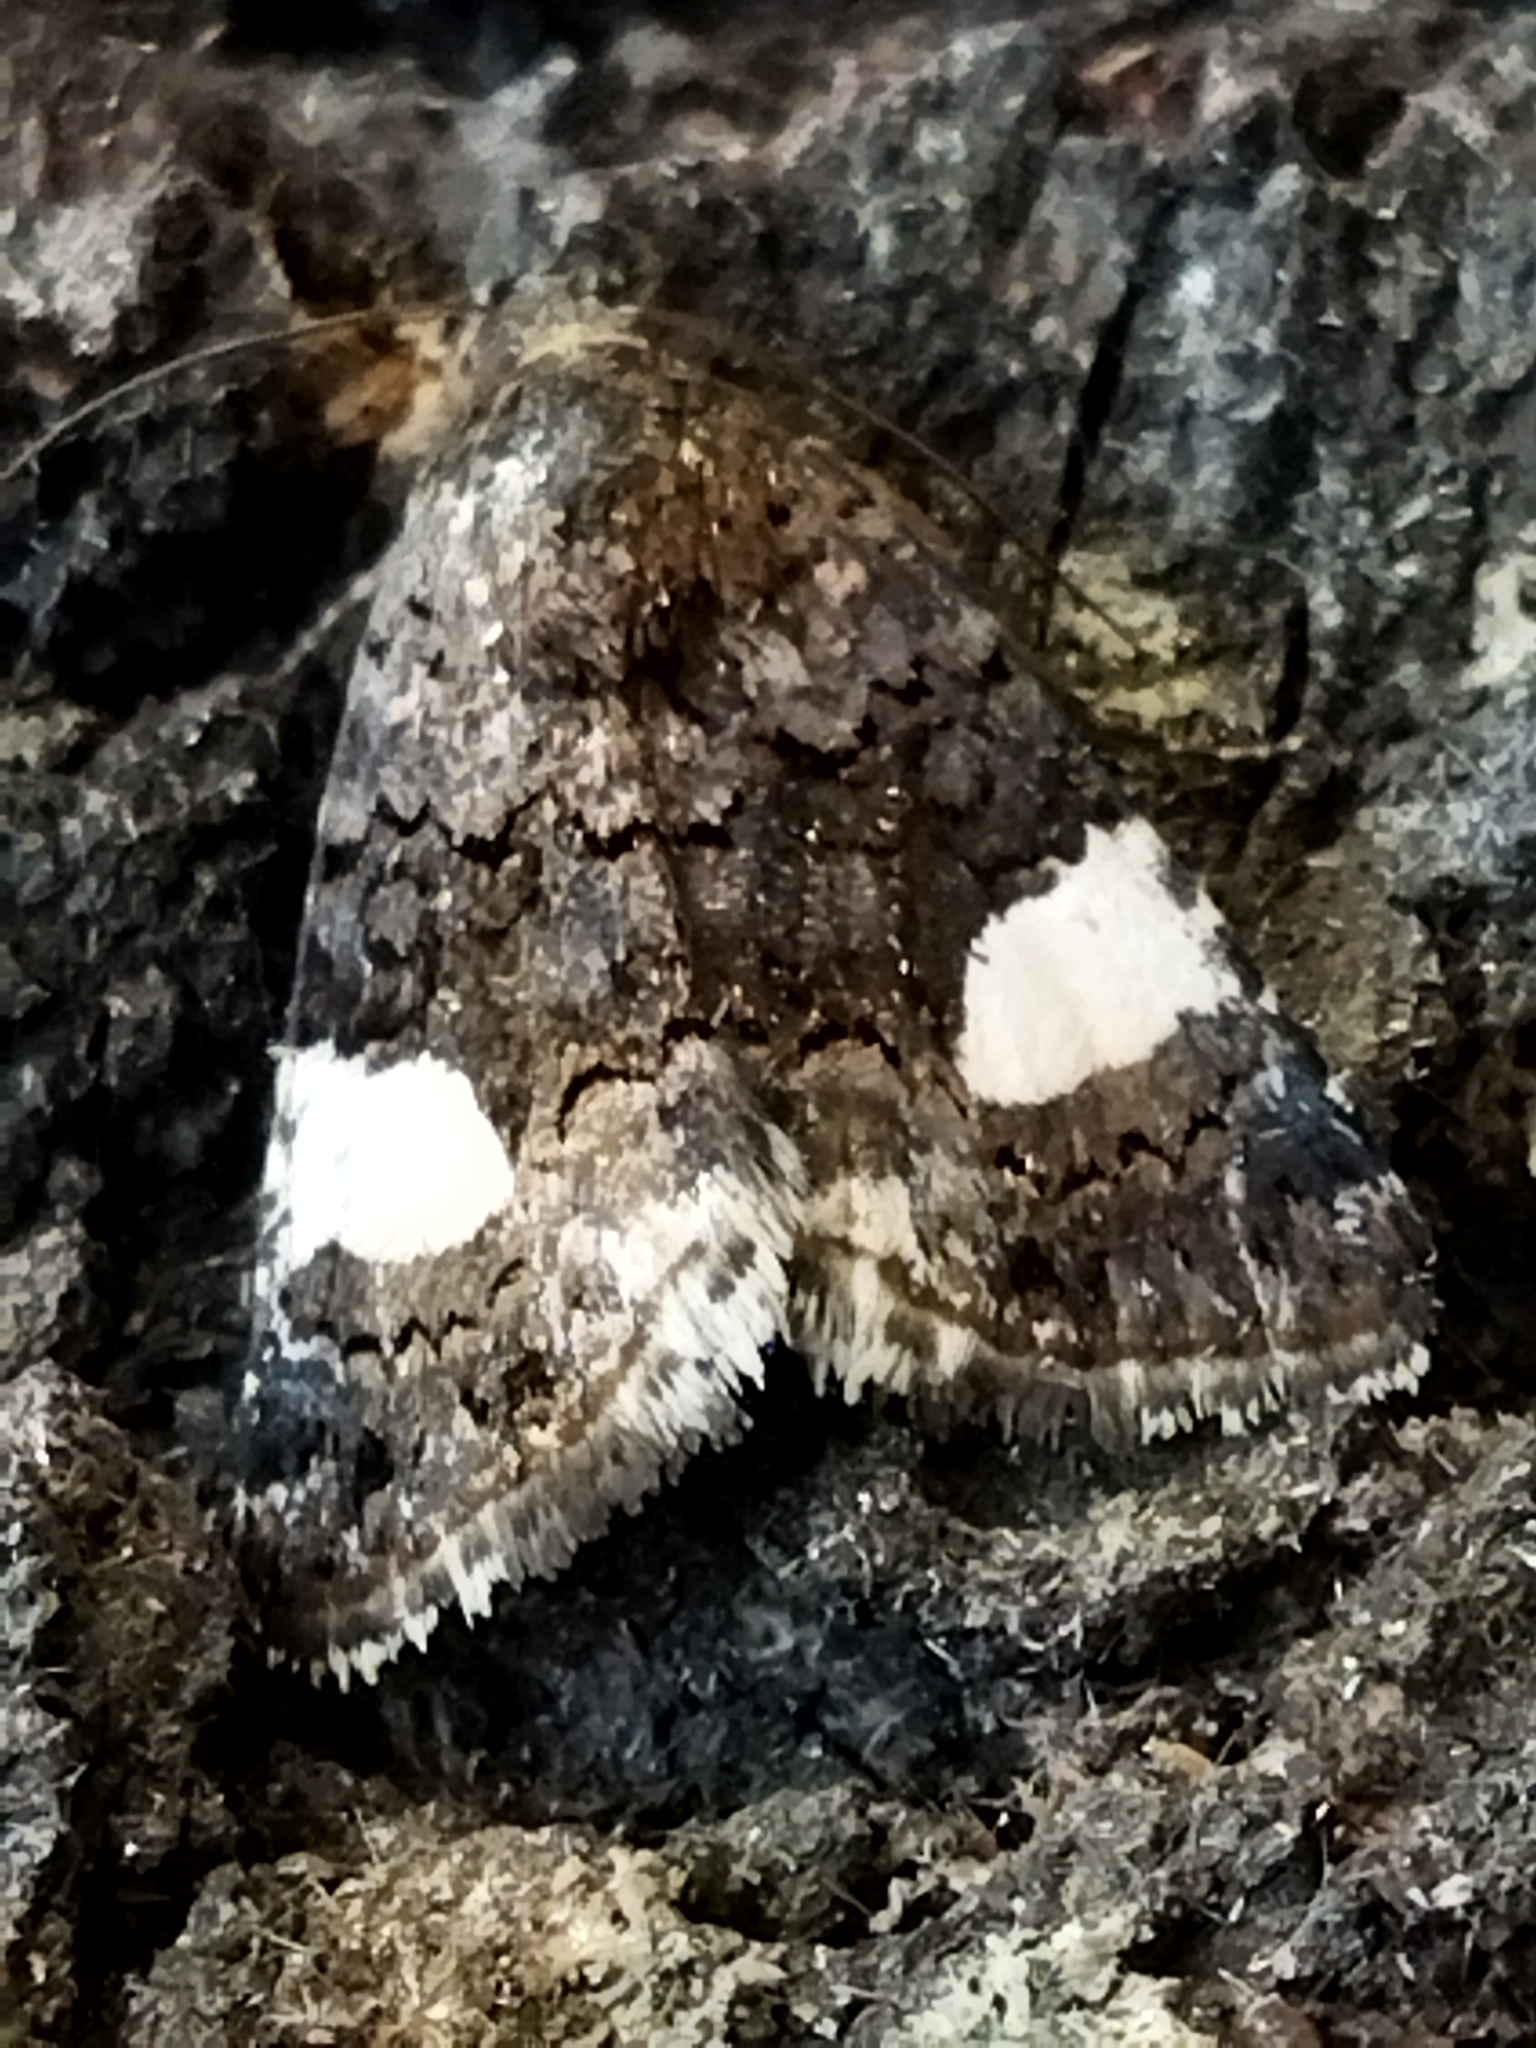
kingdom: Animalia
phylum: Arthropoda
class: Insecta
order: Lepidoptera
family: Erebidae
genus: Tyta
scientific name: Tyta luctuosa
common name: Four-spotted
